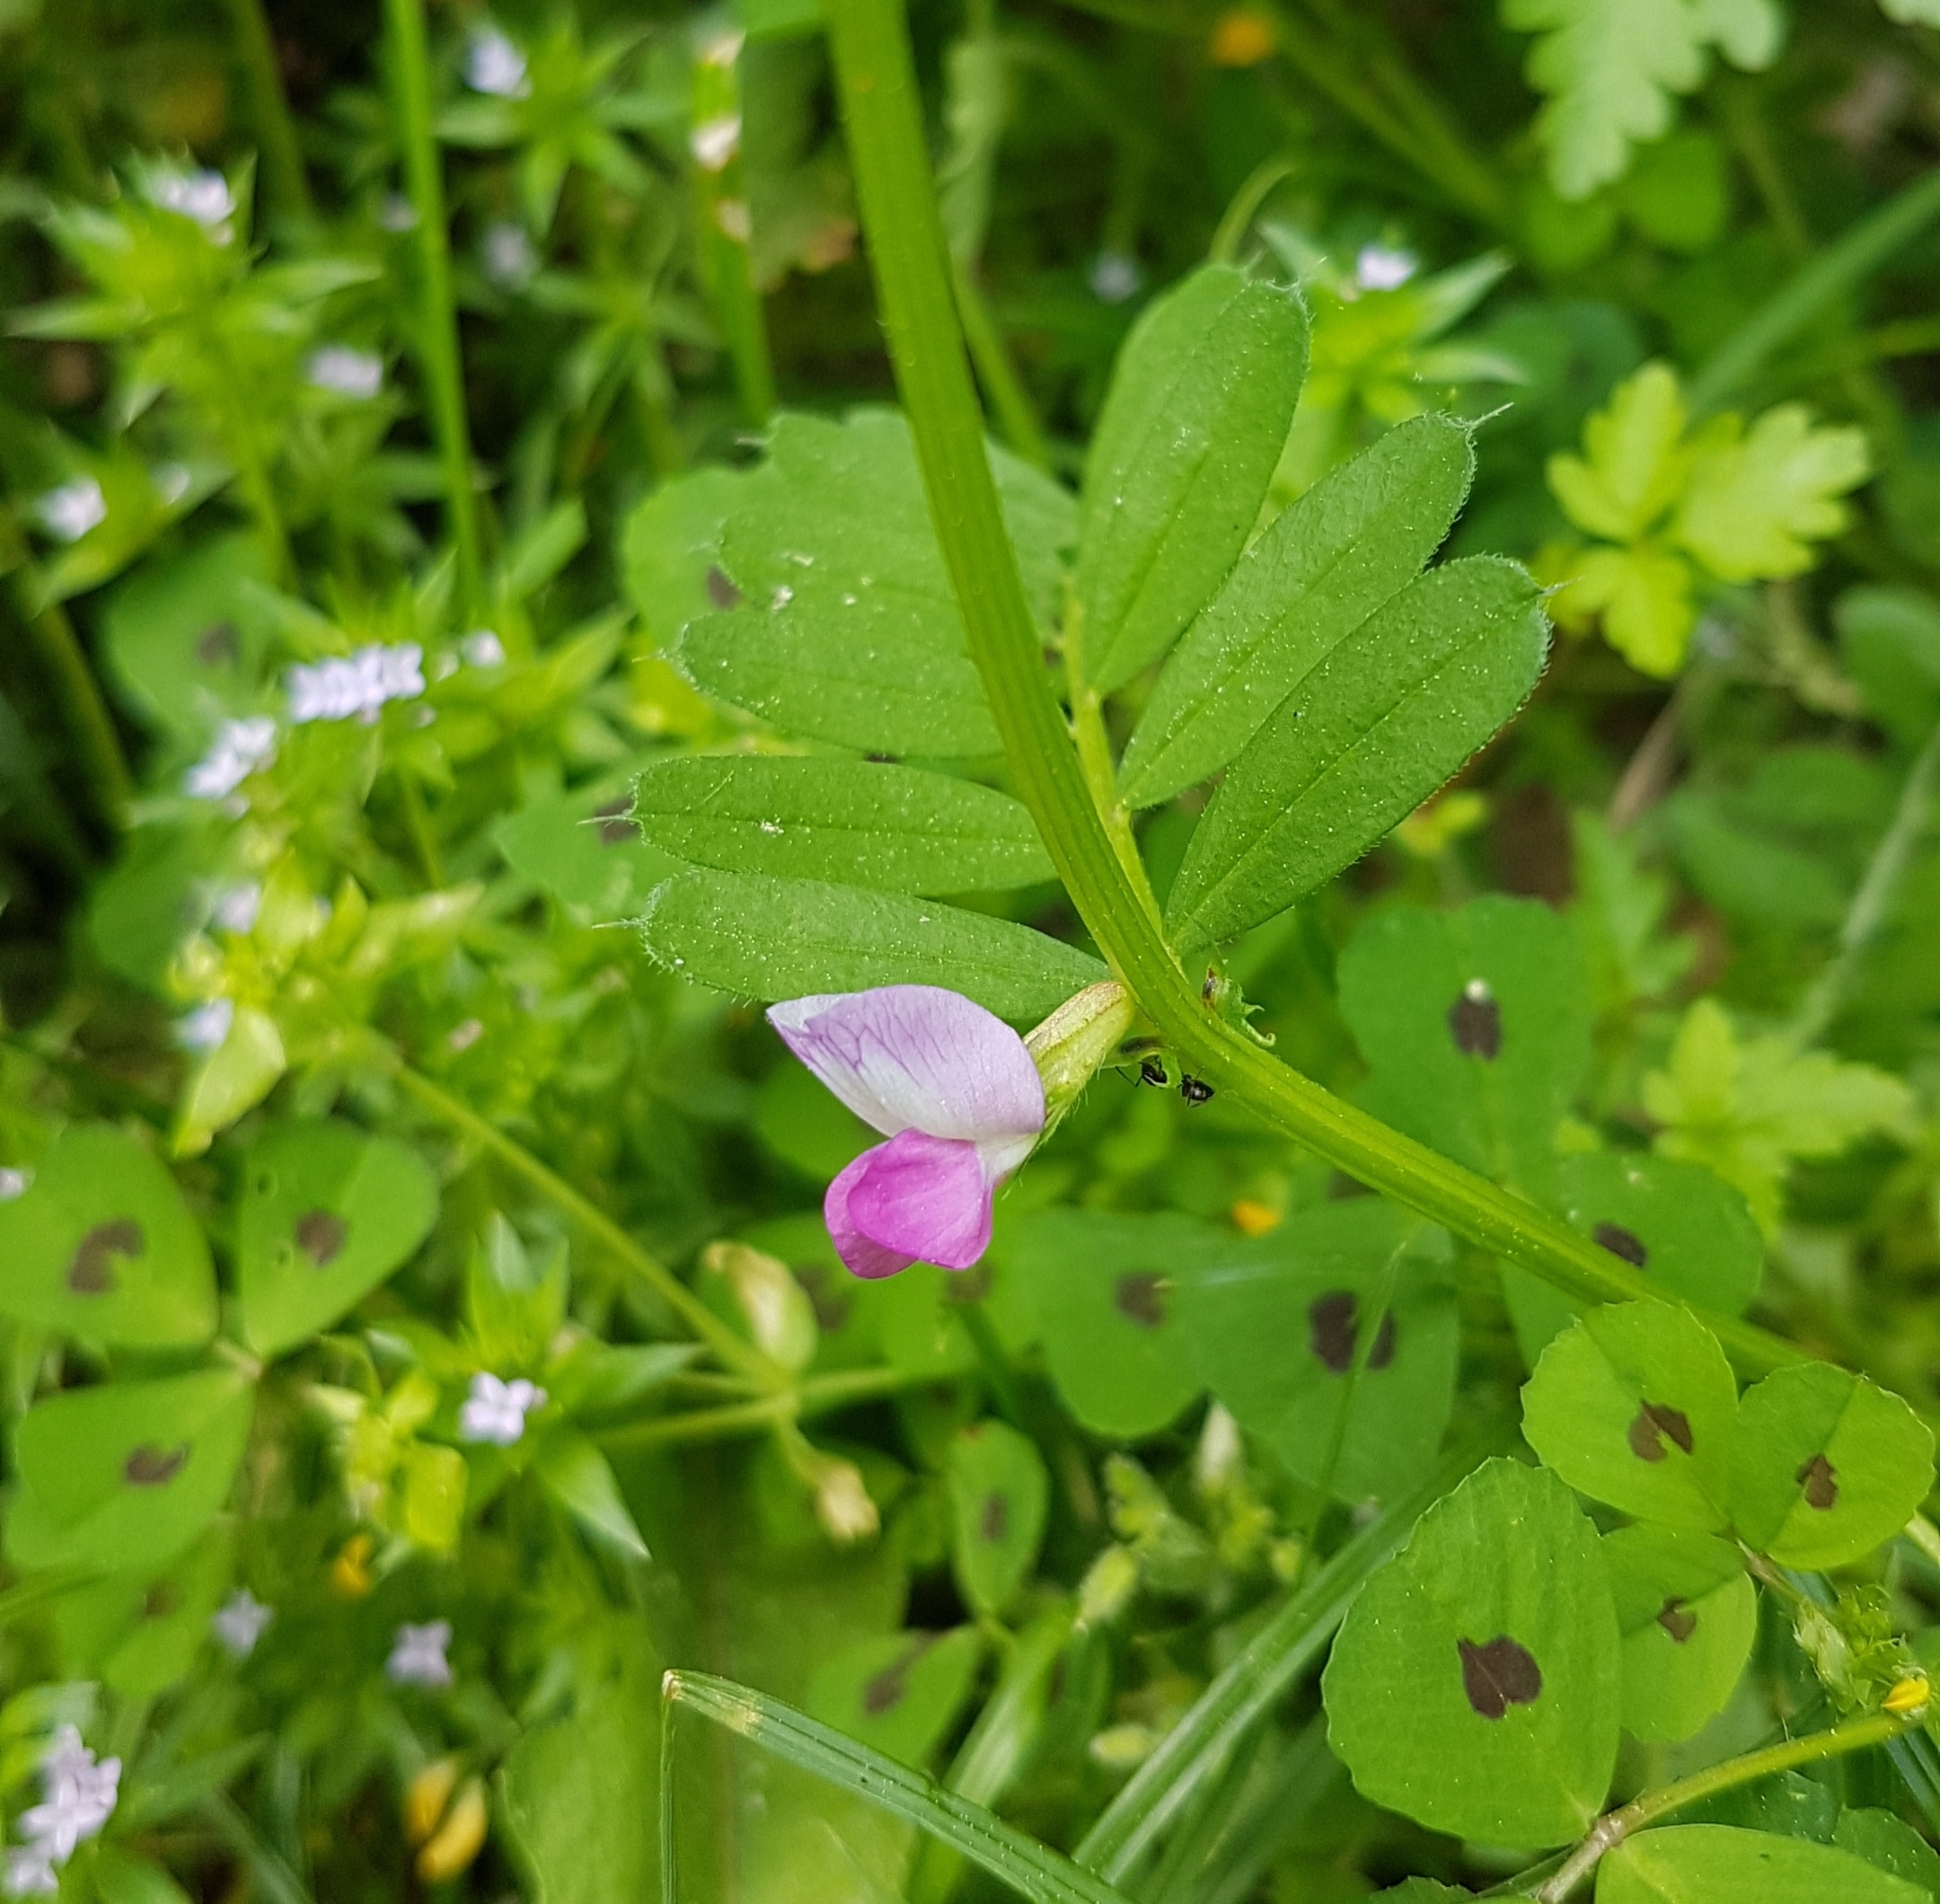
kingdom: Plantae
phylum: Tracheophyta
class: Magnoliopsida
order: Fabales
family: Fabaceae
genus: Vicia
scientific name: Vicia sativa
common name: Garden vetch
